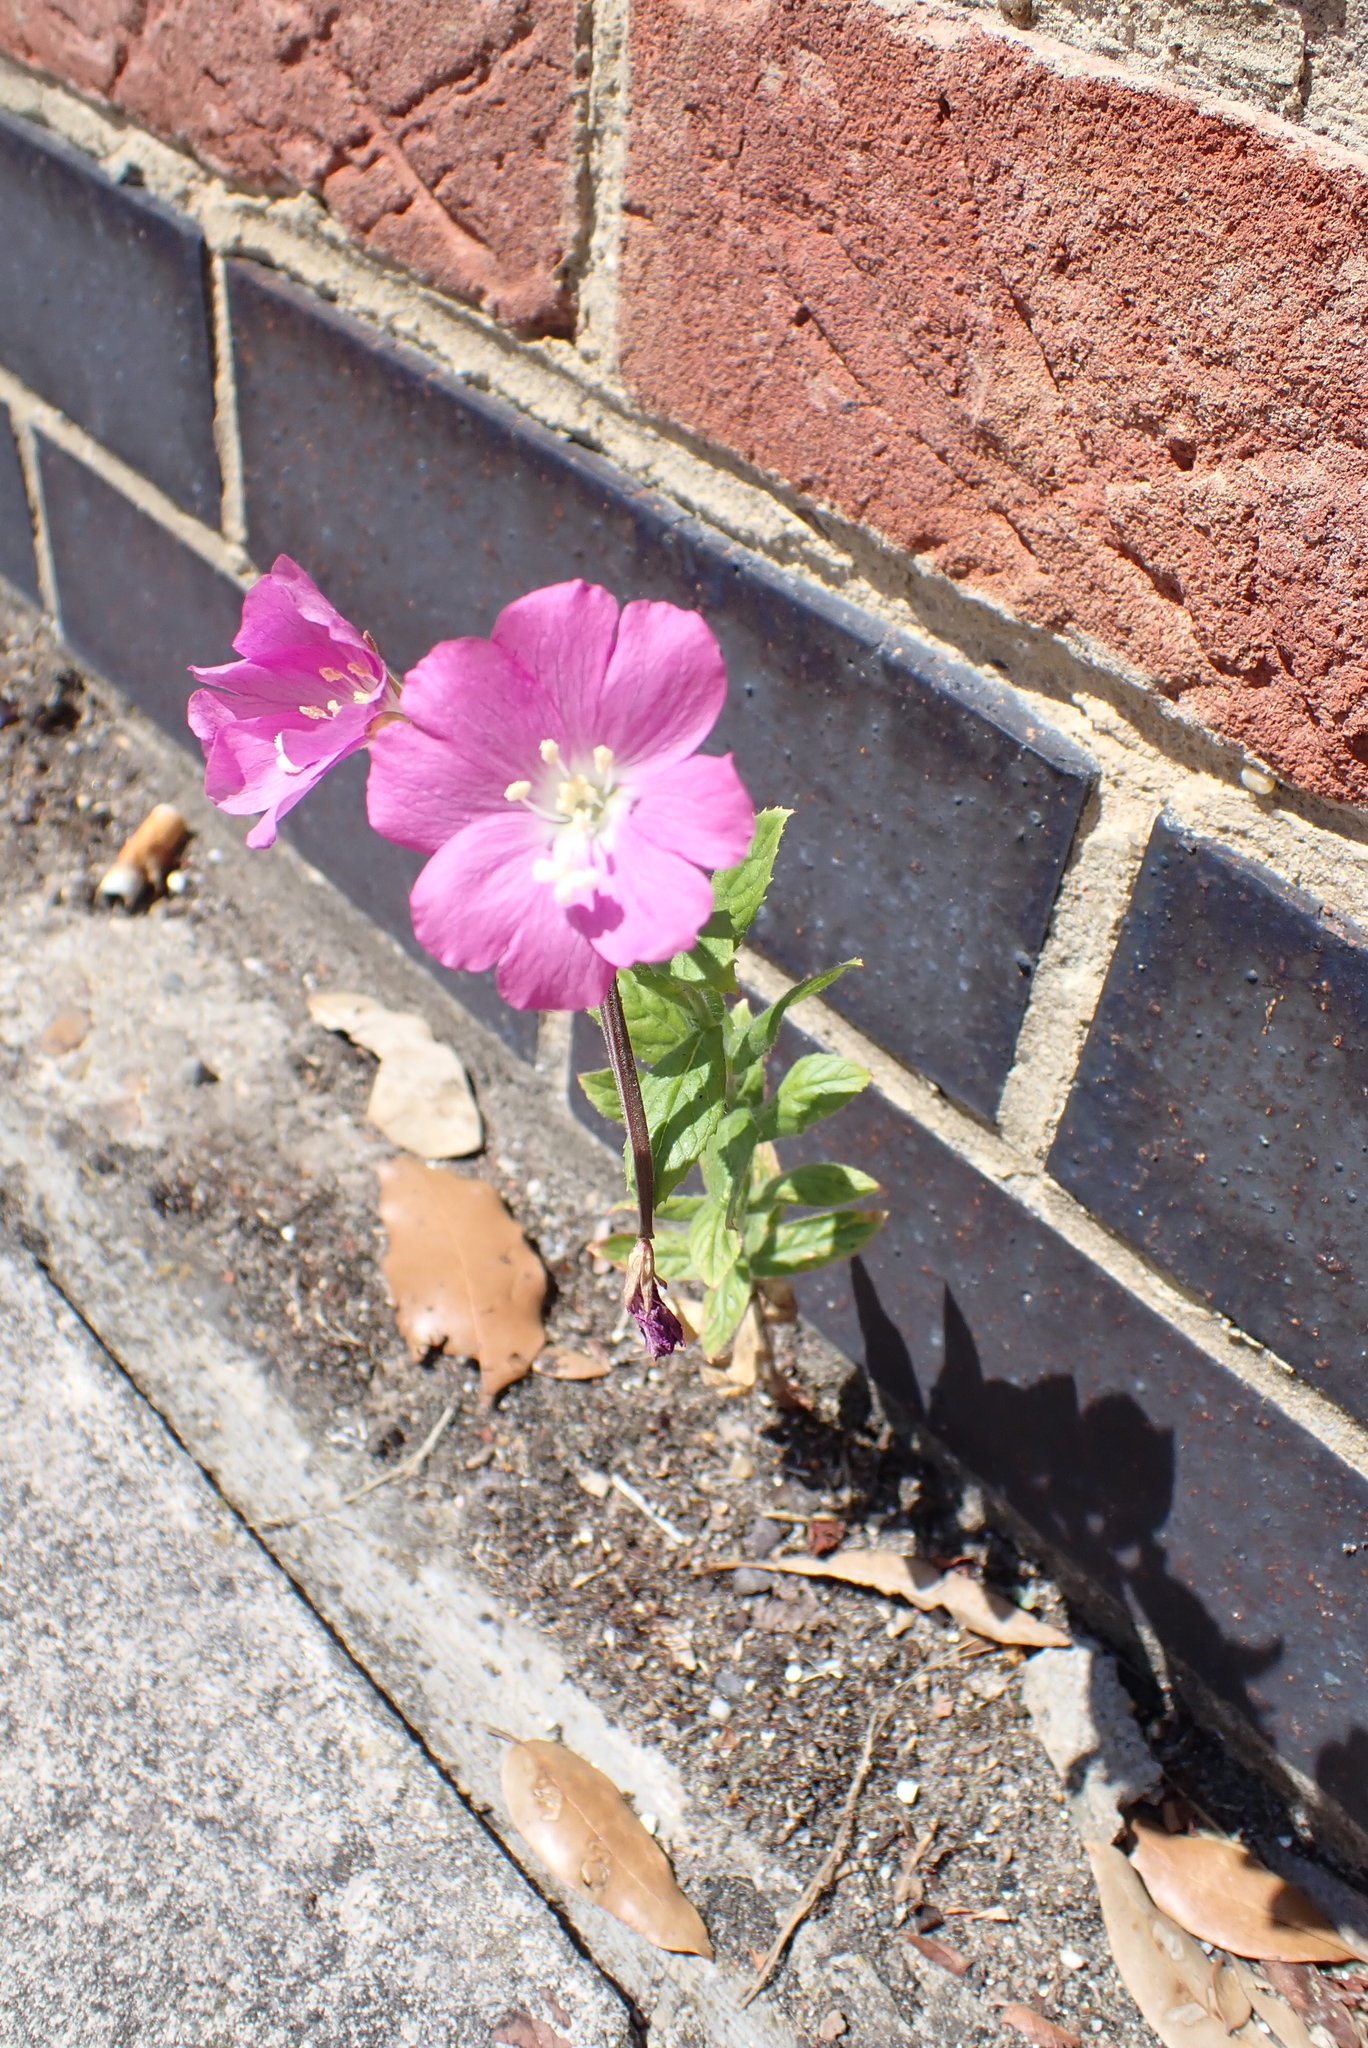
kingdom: Plantae
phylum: Tracheophyta
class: Magnoliopsida
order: Myrtales
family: Onagraceae
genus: Epilobium
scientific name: Epilobium hirsutum
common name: Great willowherb
